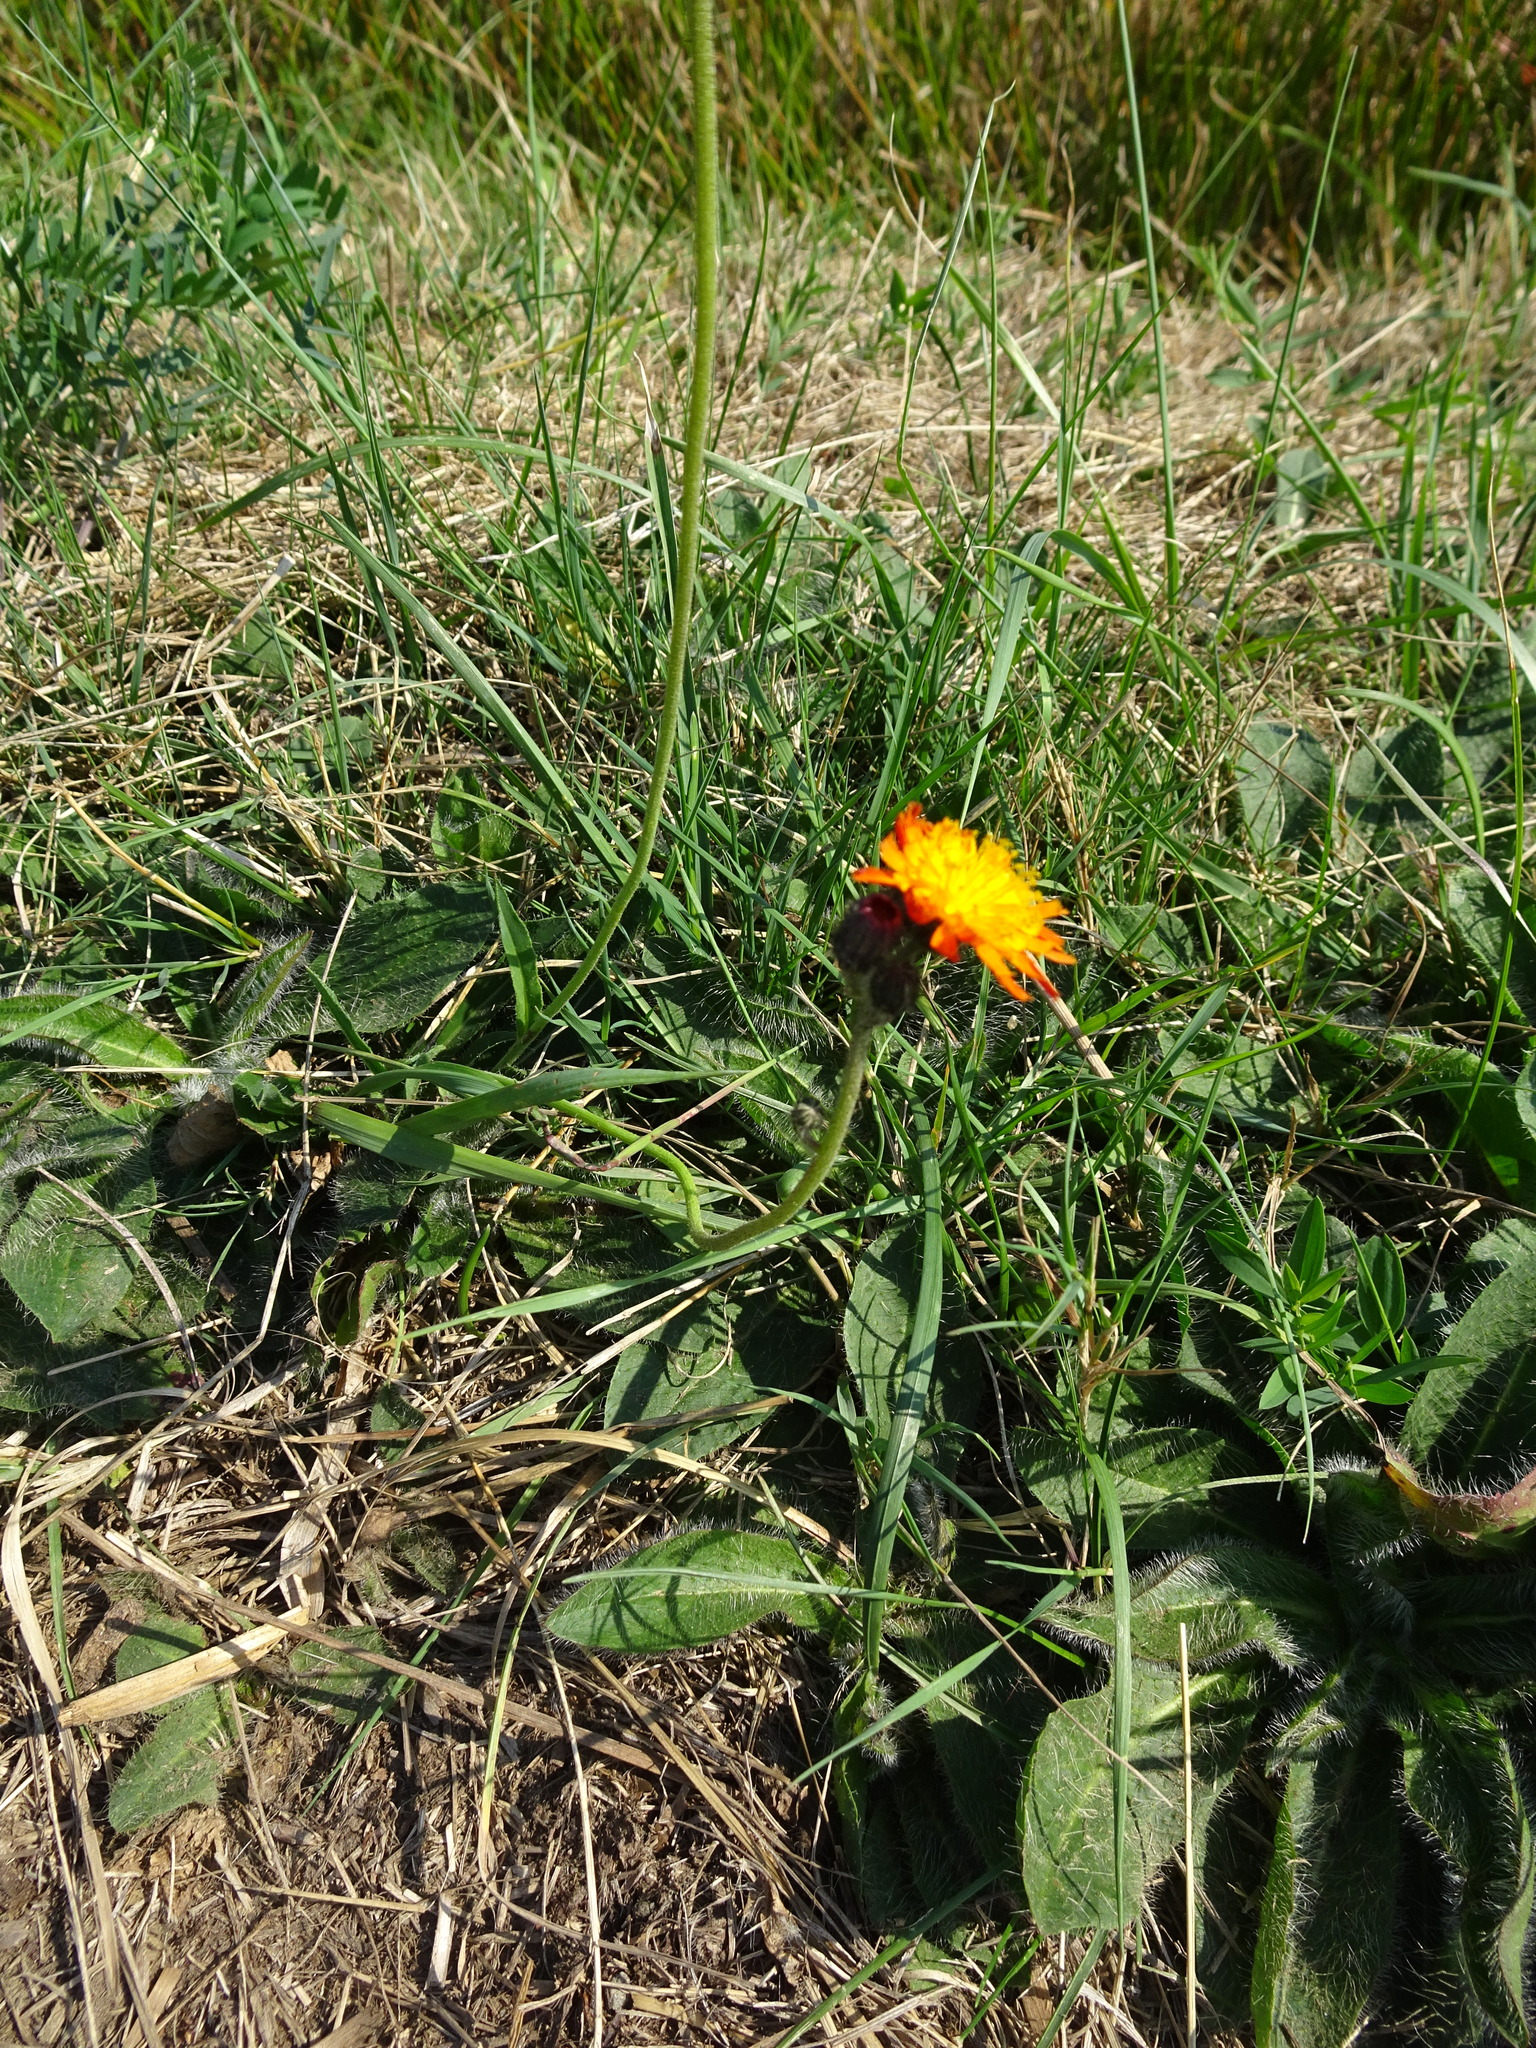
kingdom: Plantae
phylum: Tracheophyta
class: Magnoliopsida
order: Asterales
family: Asteraceae
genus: Pilosella
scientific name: Pilosella aurantiaca
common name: Fox-and-cubs
